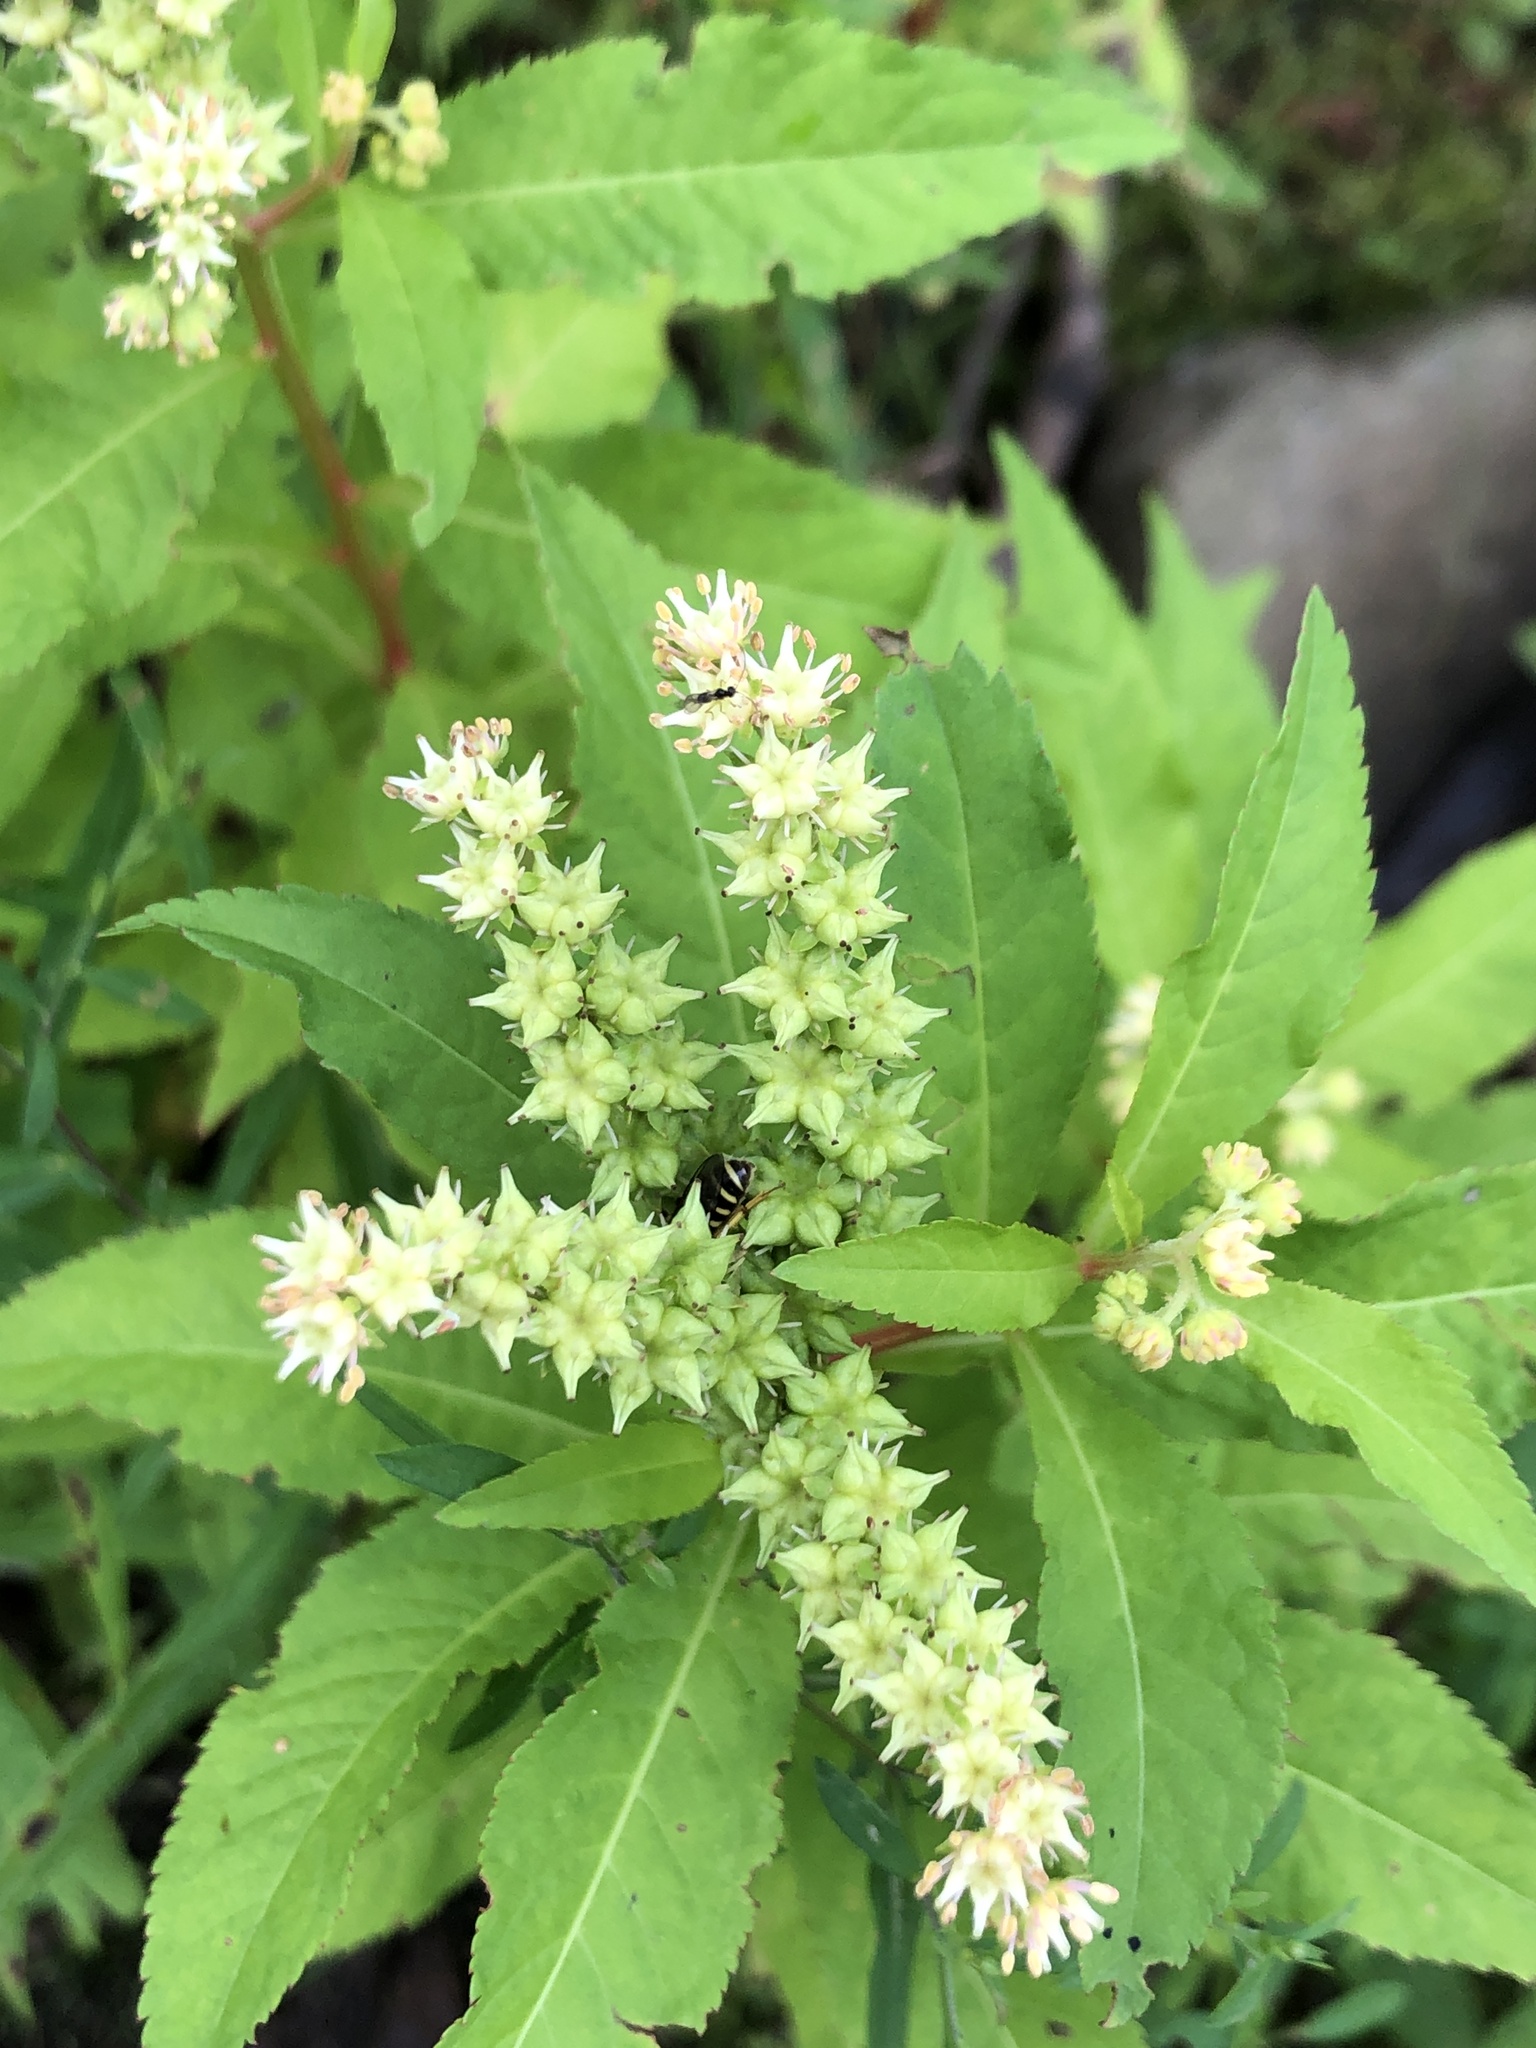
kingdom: Plantae
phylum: Tracheophyta
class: Magnoliopsida
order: Saxifragales
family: Penthoraceae
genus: Penthorum
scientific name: Penthorum sedoides
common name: Ditch stonecrop
